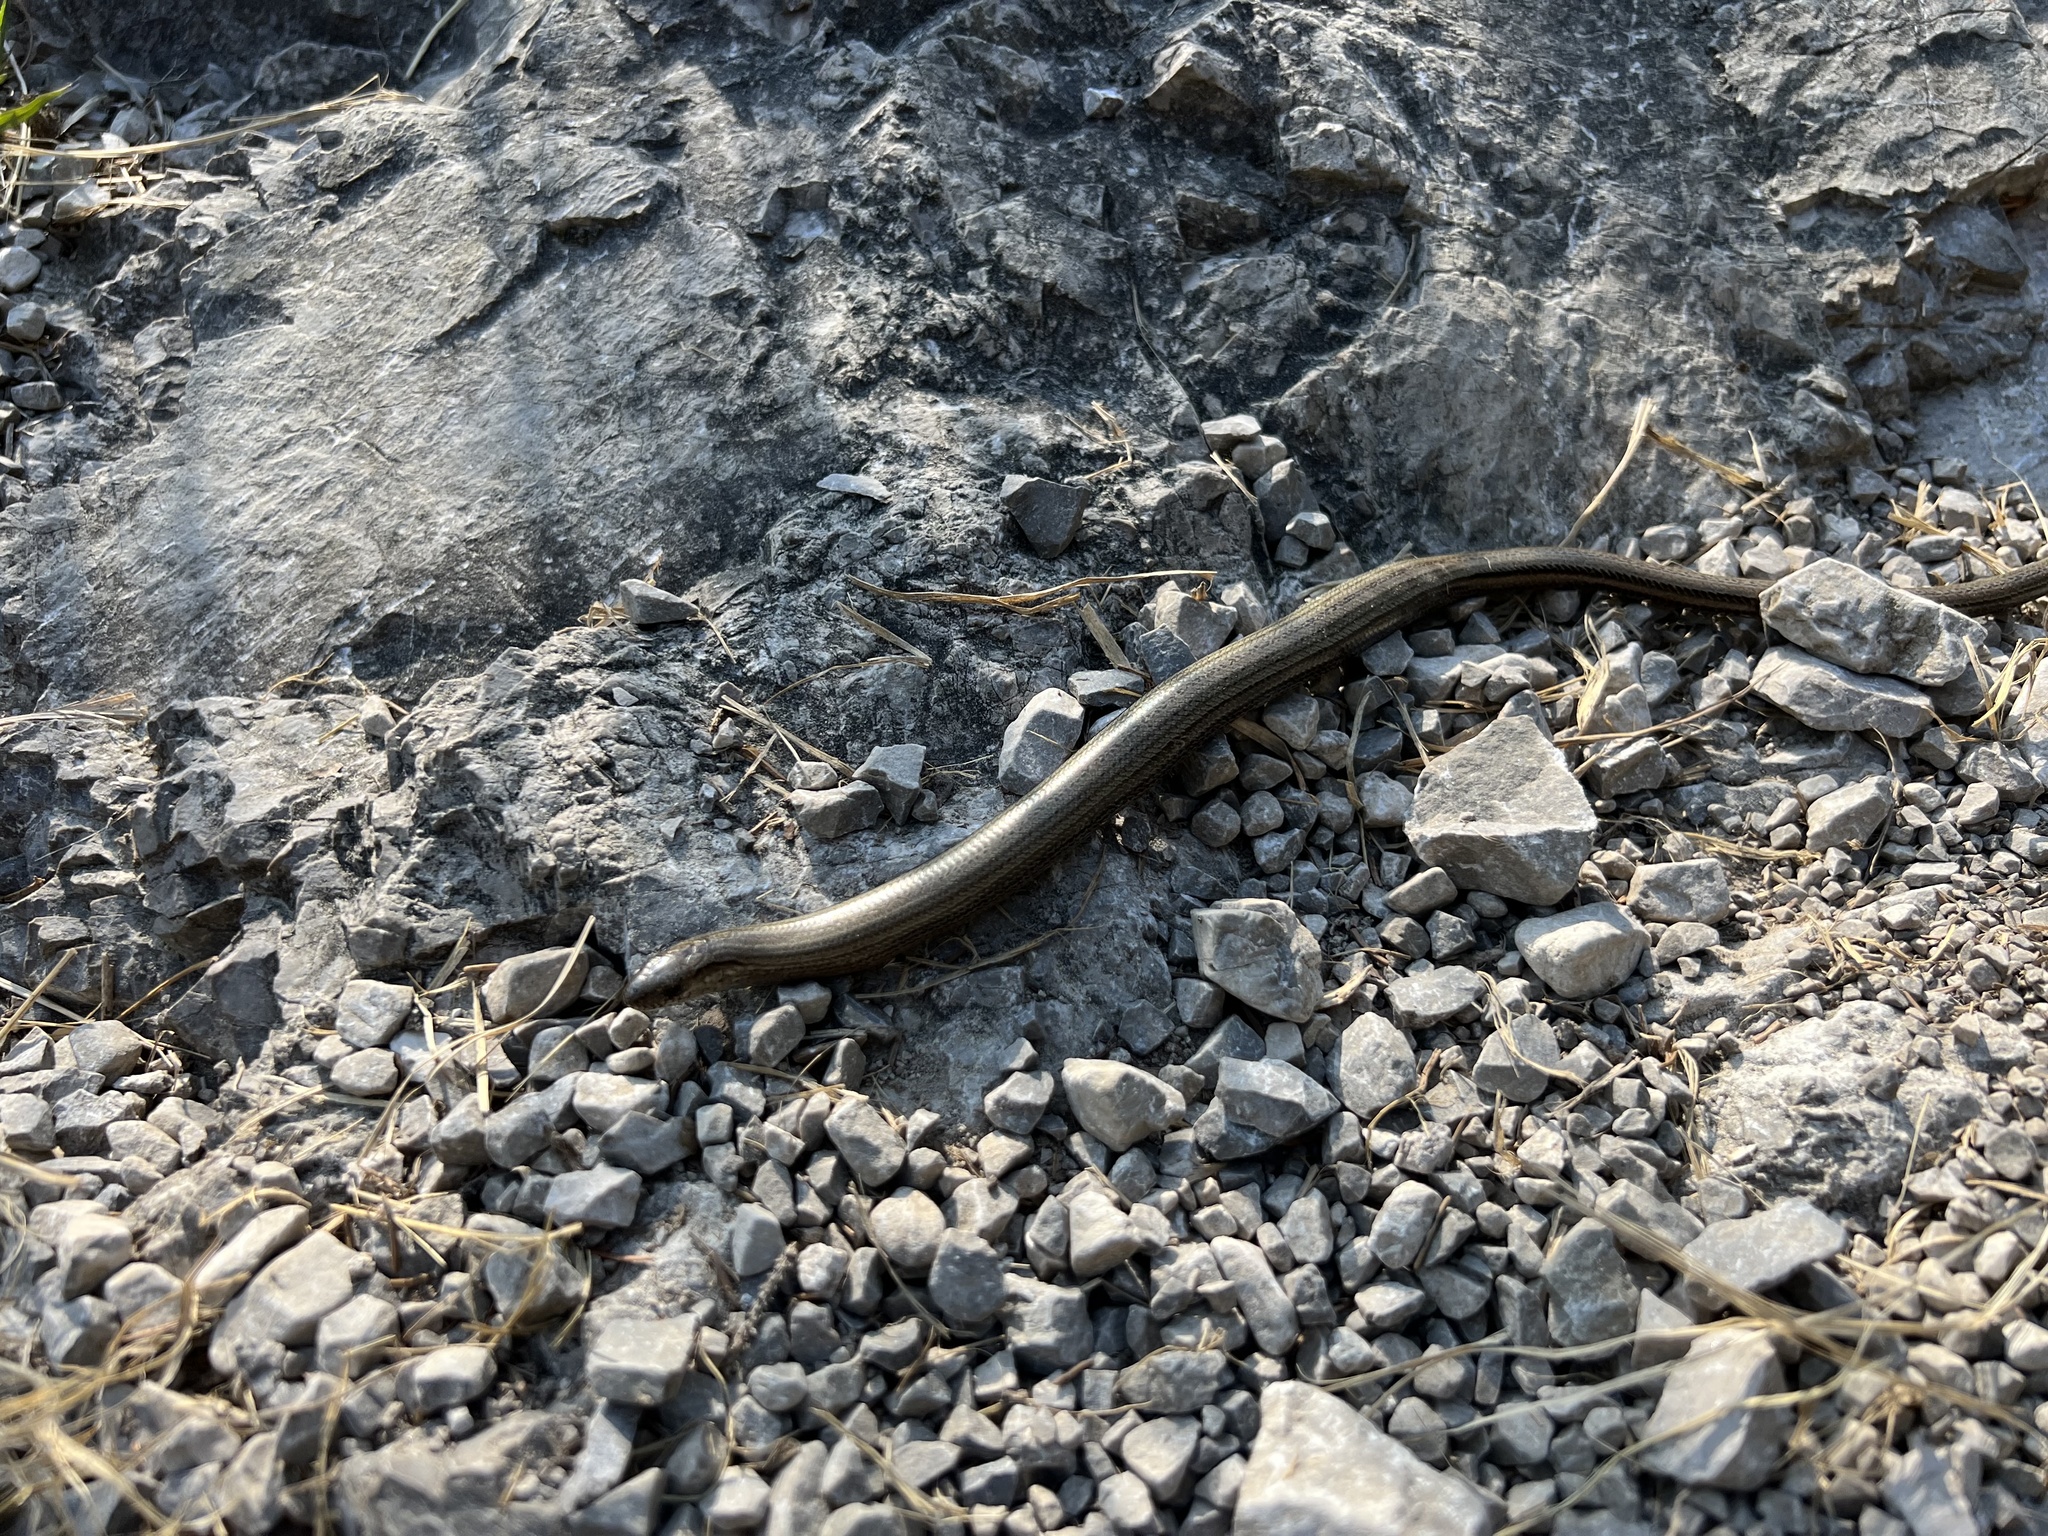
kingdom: Animalia
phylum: Chordata
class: Squamata
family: Anguidae
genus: Anguis
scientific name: Anguis fragilis
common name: Slow worm
